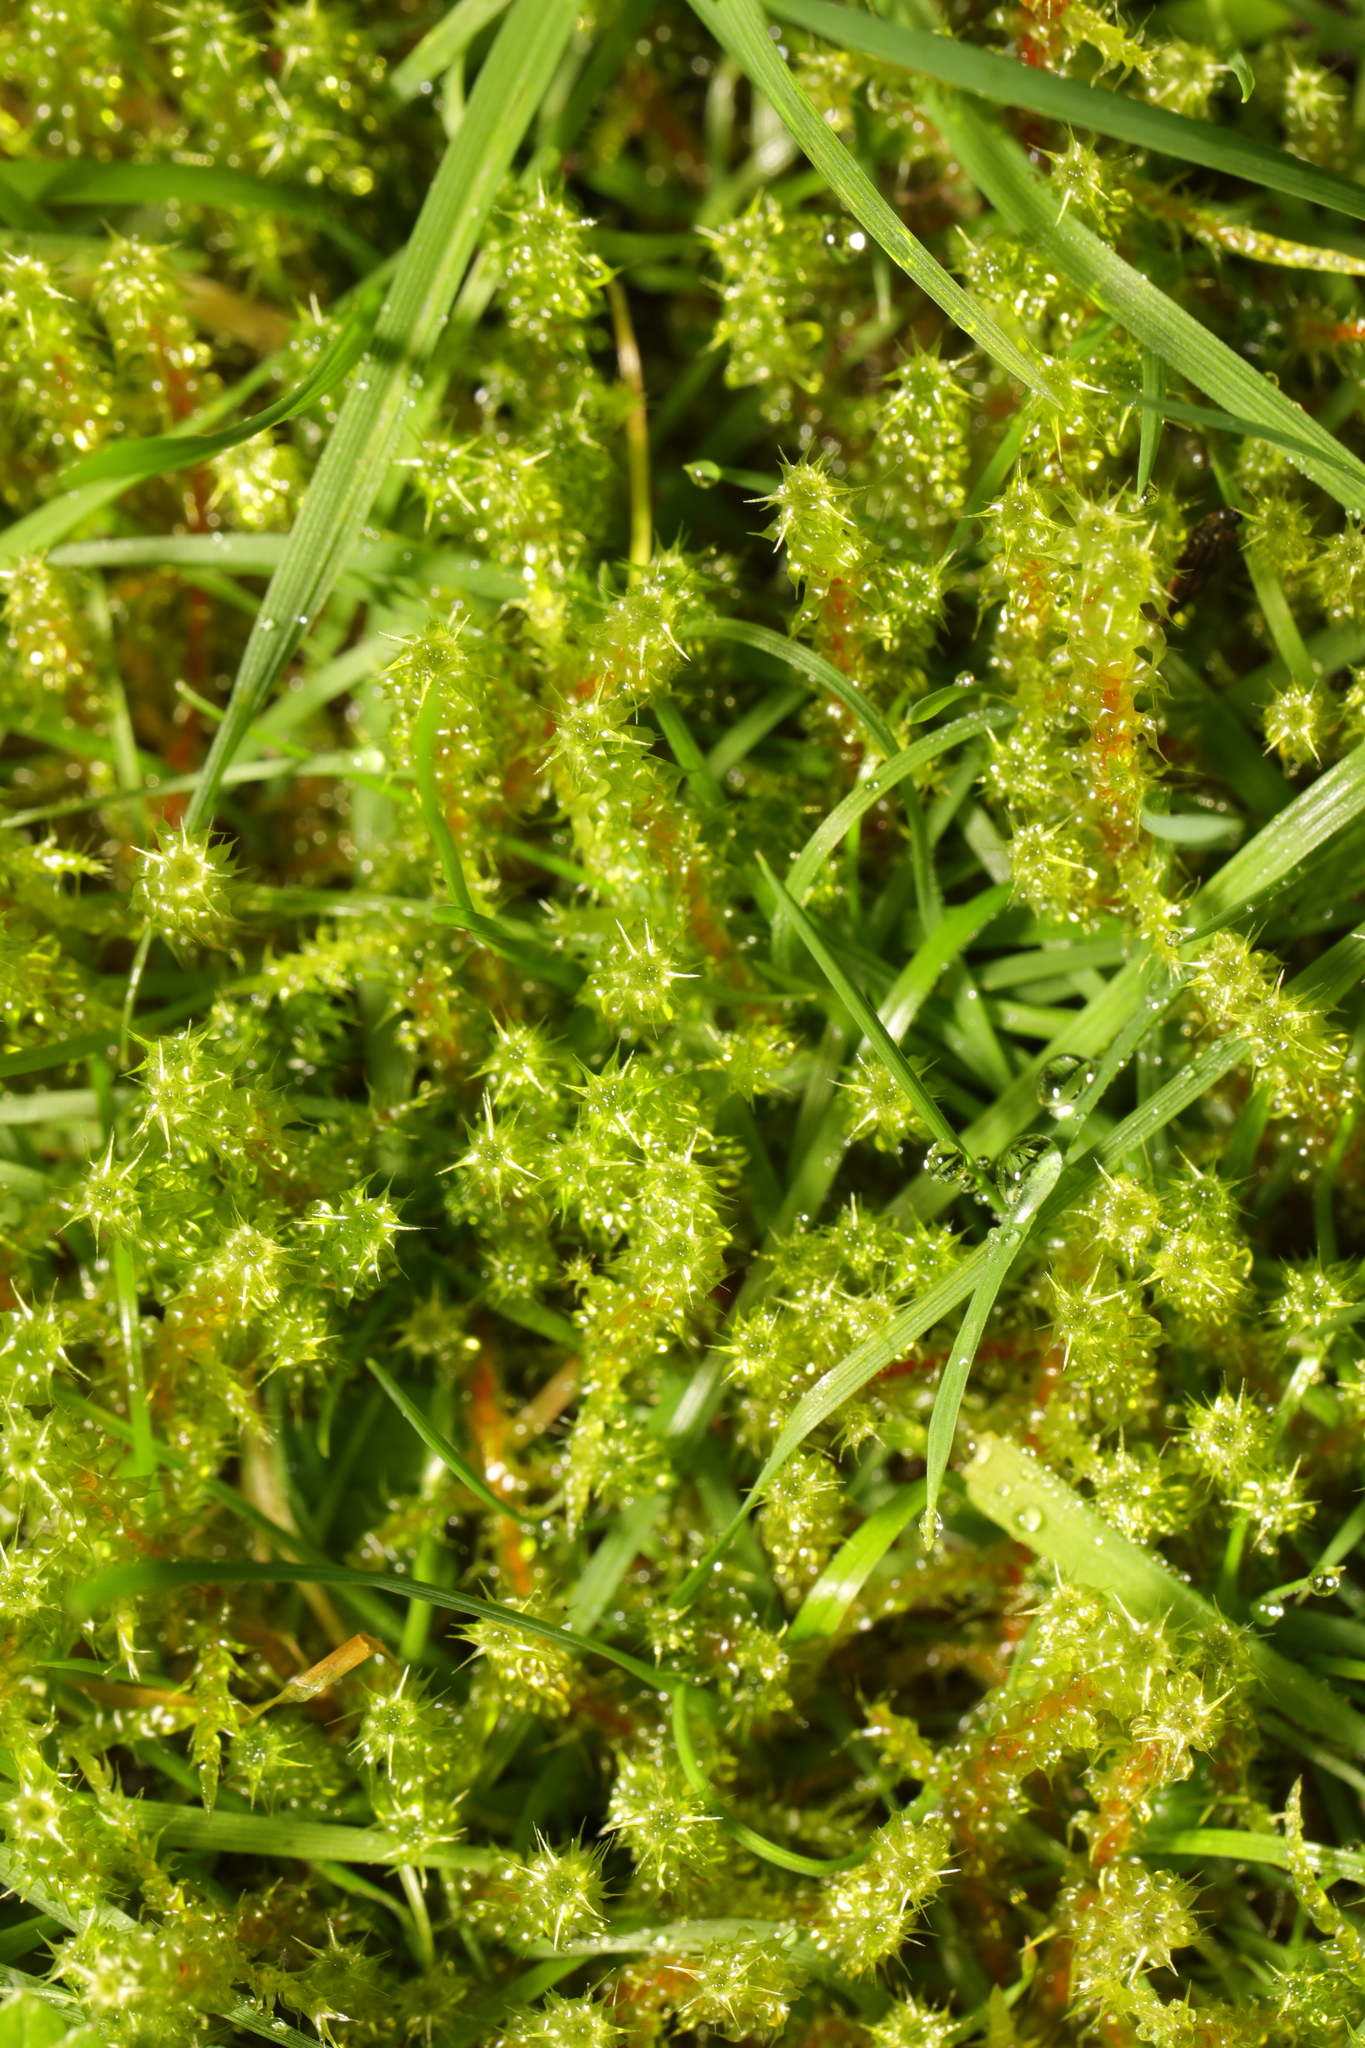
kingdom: Plantae
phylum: Bryophyta
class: Bryopsida
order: Hypnales
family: Hylocomiaceae
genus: Rhytidiadelphus
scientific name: Rhytidiadelphus squarrosus
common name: Springy turf-moss
